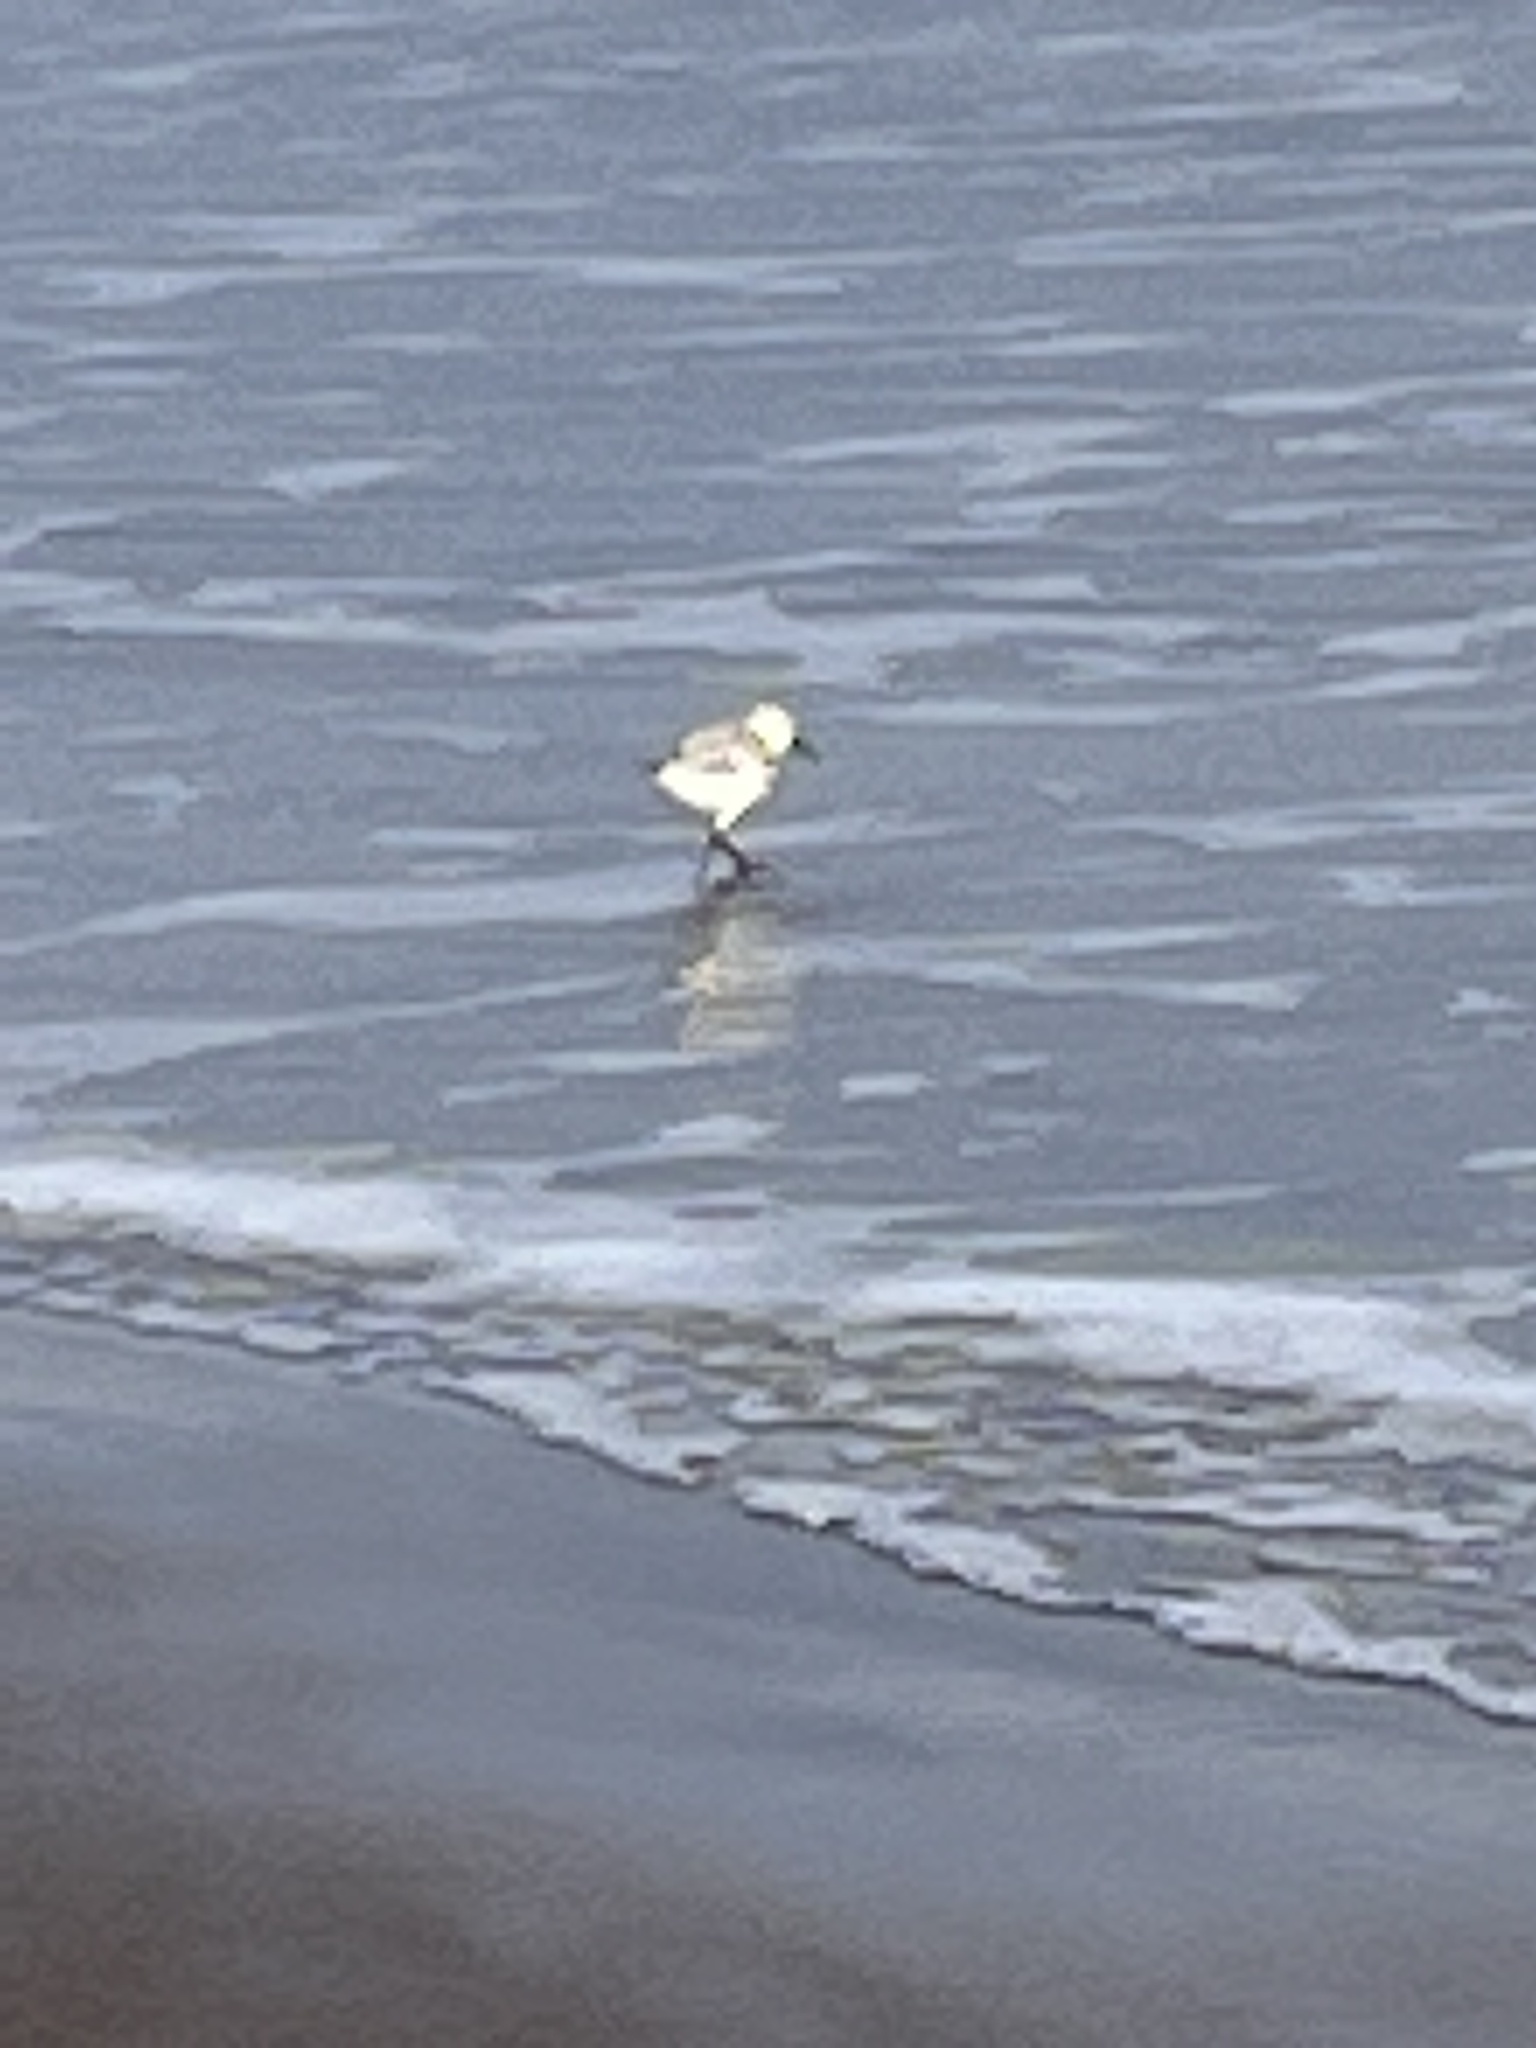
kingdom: Animalia
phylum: Chordata
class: Aves
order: Charadriiformes
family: Scolopacidae
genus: Calidris
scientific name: Calidris alba
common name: Sanderling
